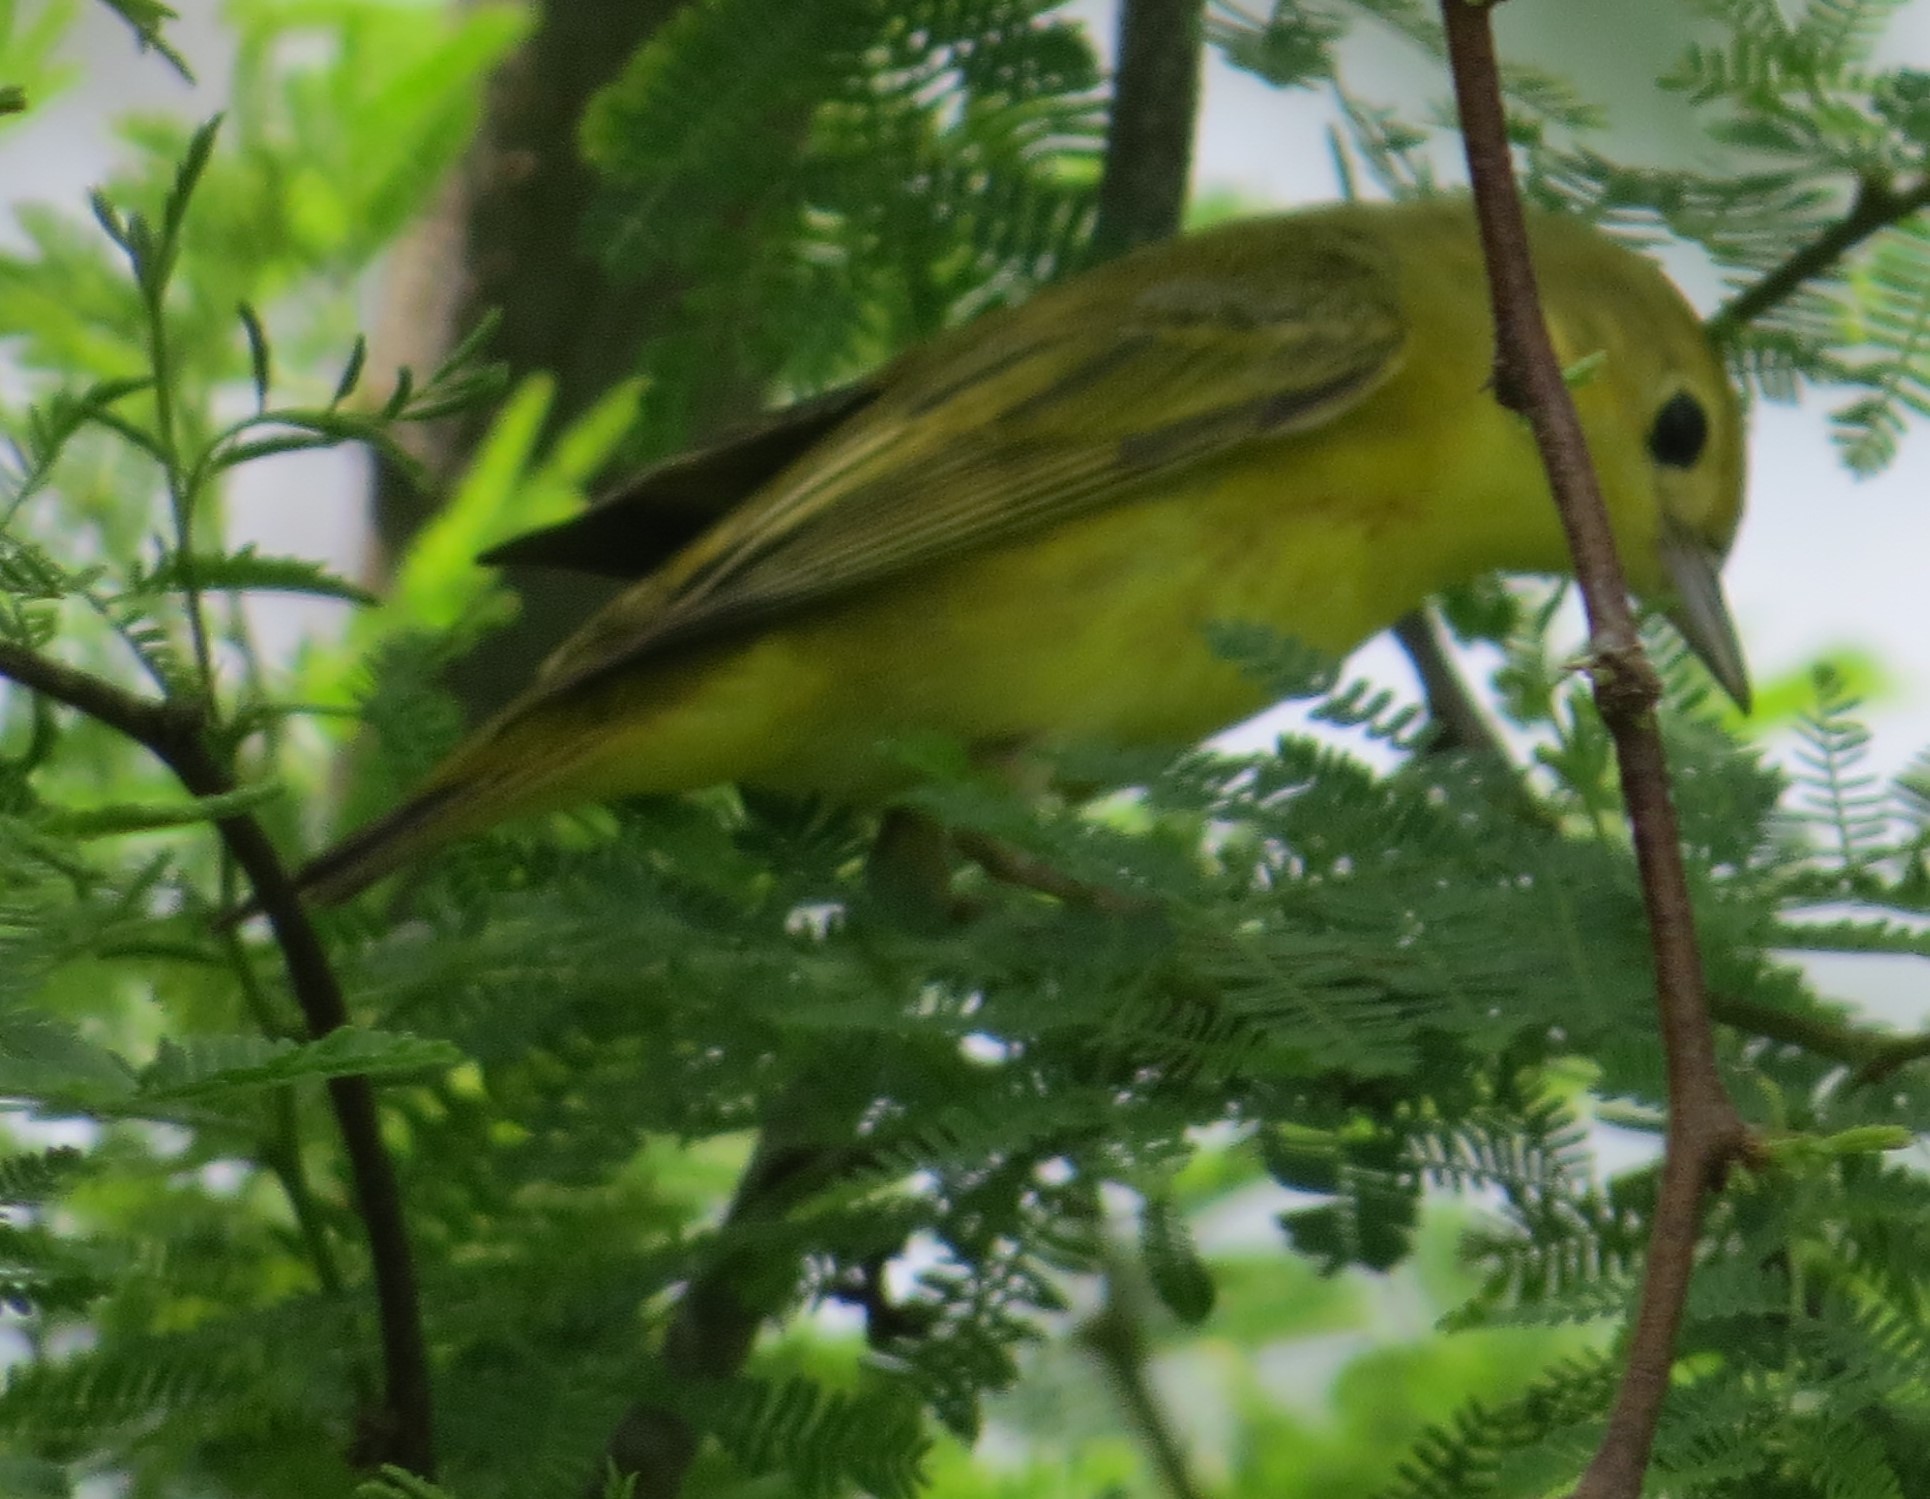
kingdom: Animalia
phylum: Chordata
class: Aves
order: Passeriformes
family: Parulidae
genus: Setophaga
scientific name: Setophaga petechia
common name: Yellow warbler
